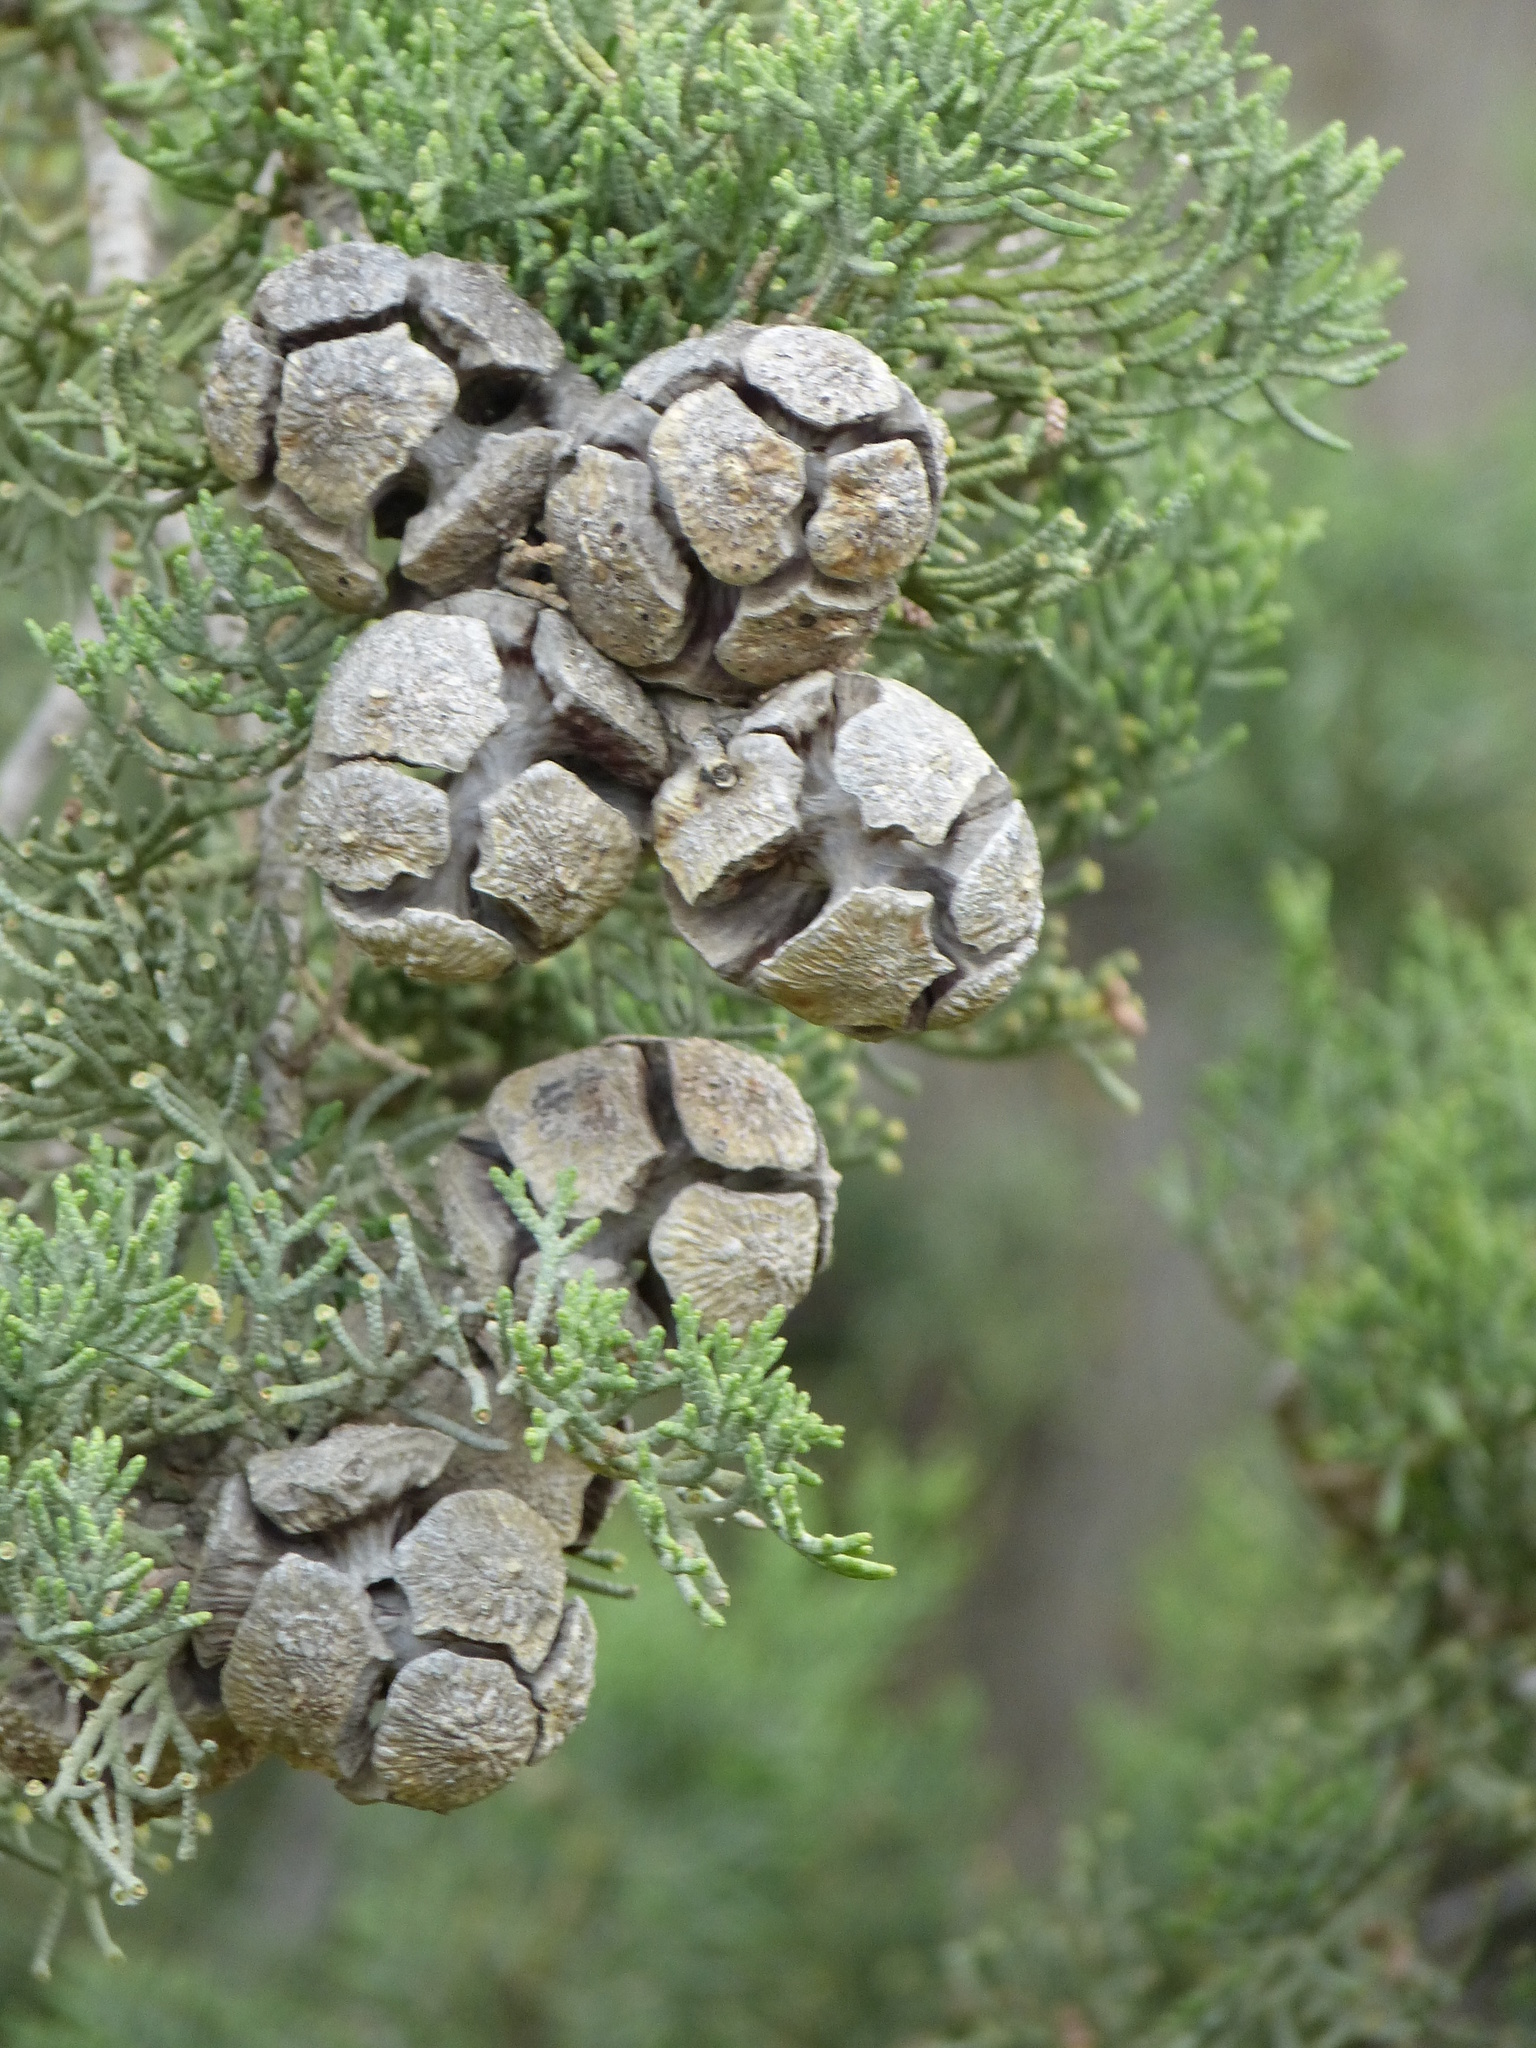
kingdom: Plantae
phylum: Tracheophyta
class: Pinopsida
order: Pinales
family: Cupressaceae
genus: Cupressus
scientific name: Cupressus sempervirens
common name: Italian cypress
